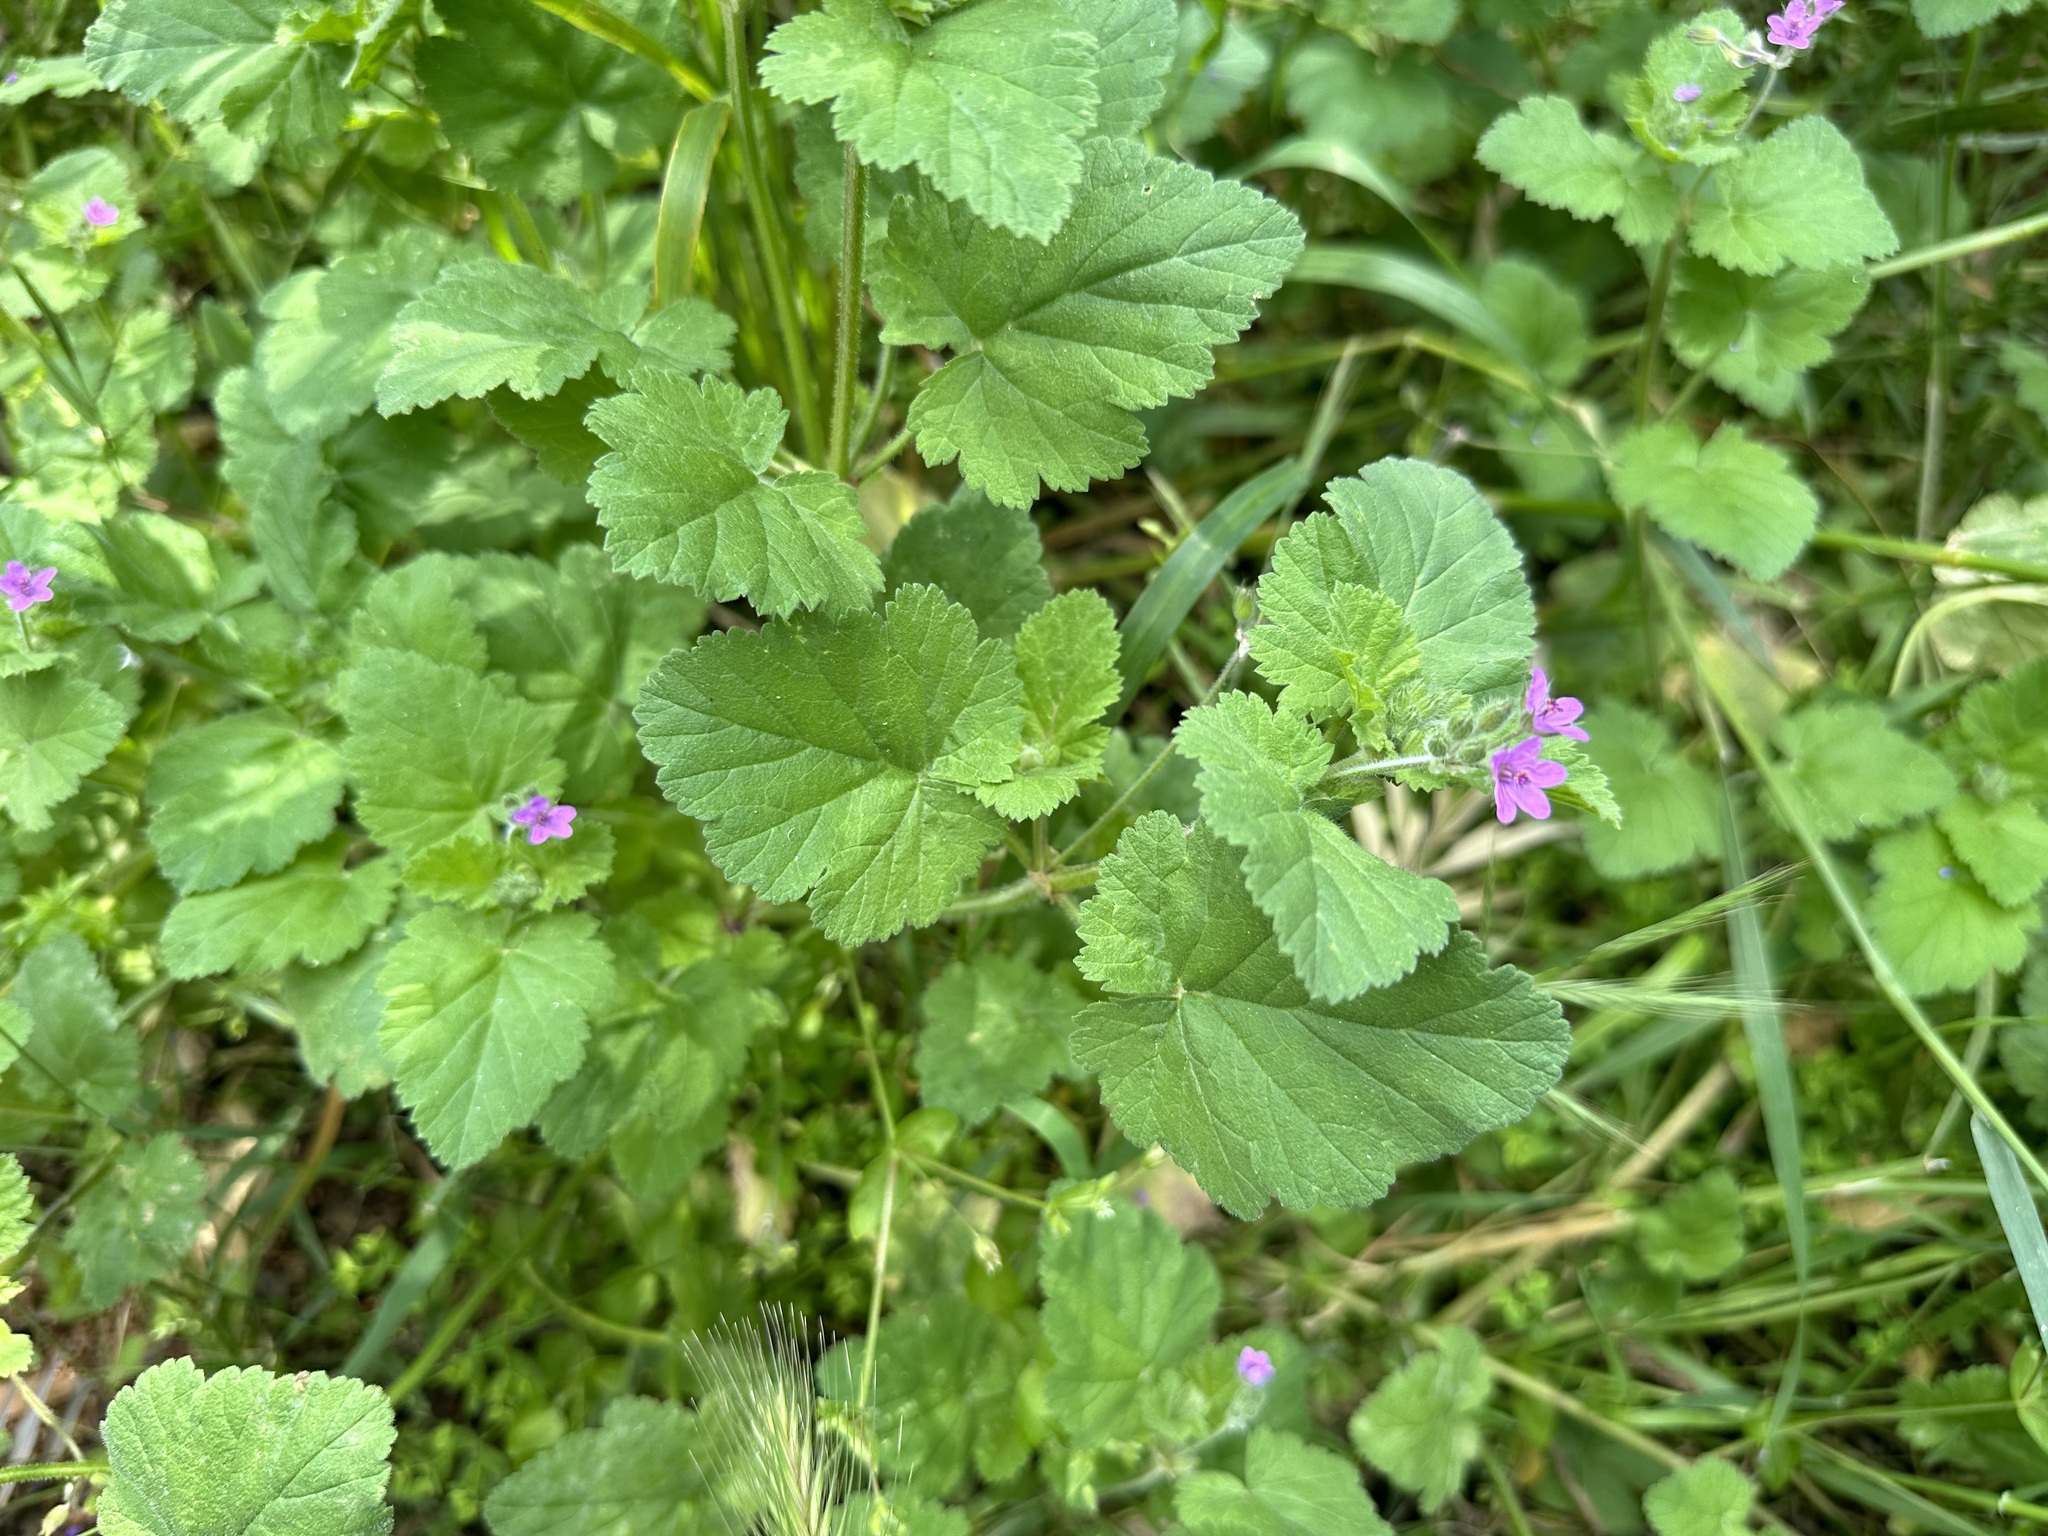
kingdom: Plantae
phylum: Tracheophyta
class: Magnoliopsida
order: Geraniales
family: Geraniaceae
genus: Erodium
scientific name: Erodium malacoides
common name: Soft stork's-bill
